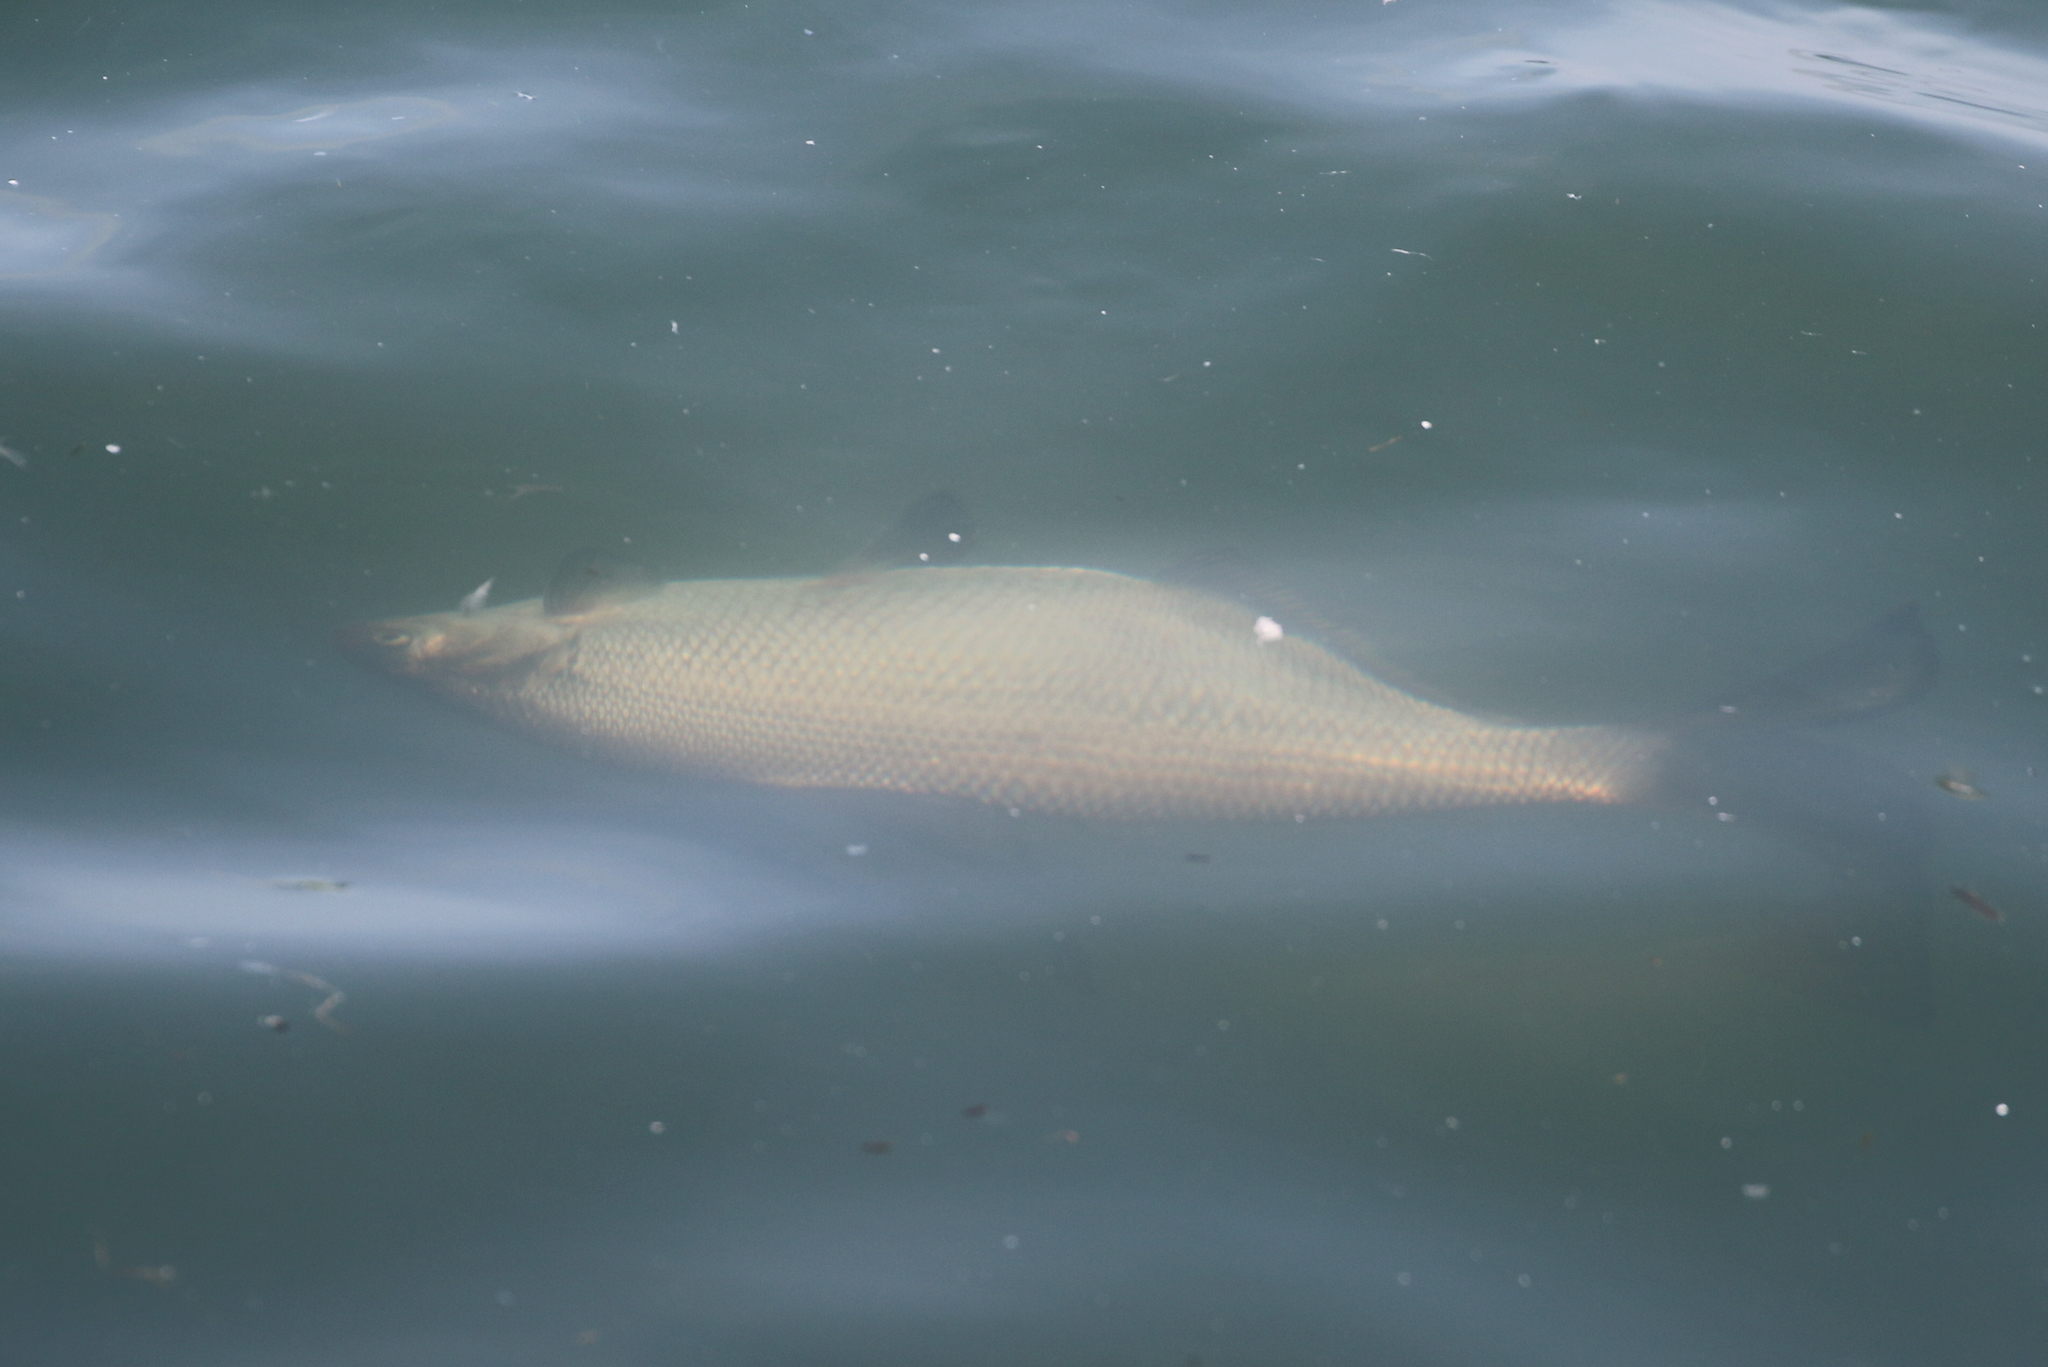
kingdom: Animalia
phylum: Chordata
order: Clupeiformes
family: Clupeidae
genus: Dorosoma
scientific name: Dorosoma cepedianum
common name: Gizzard shad
